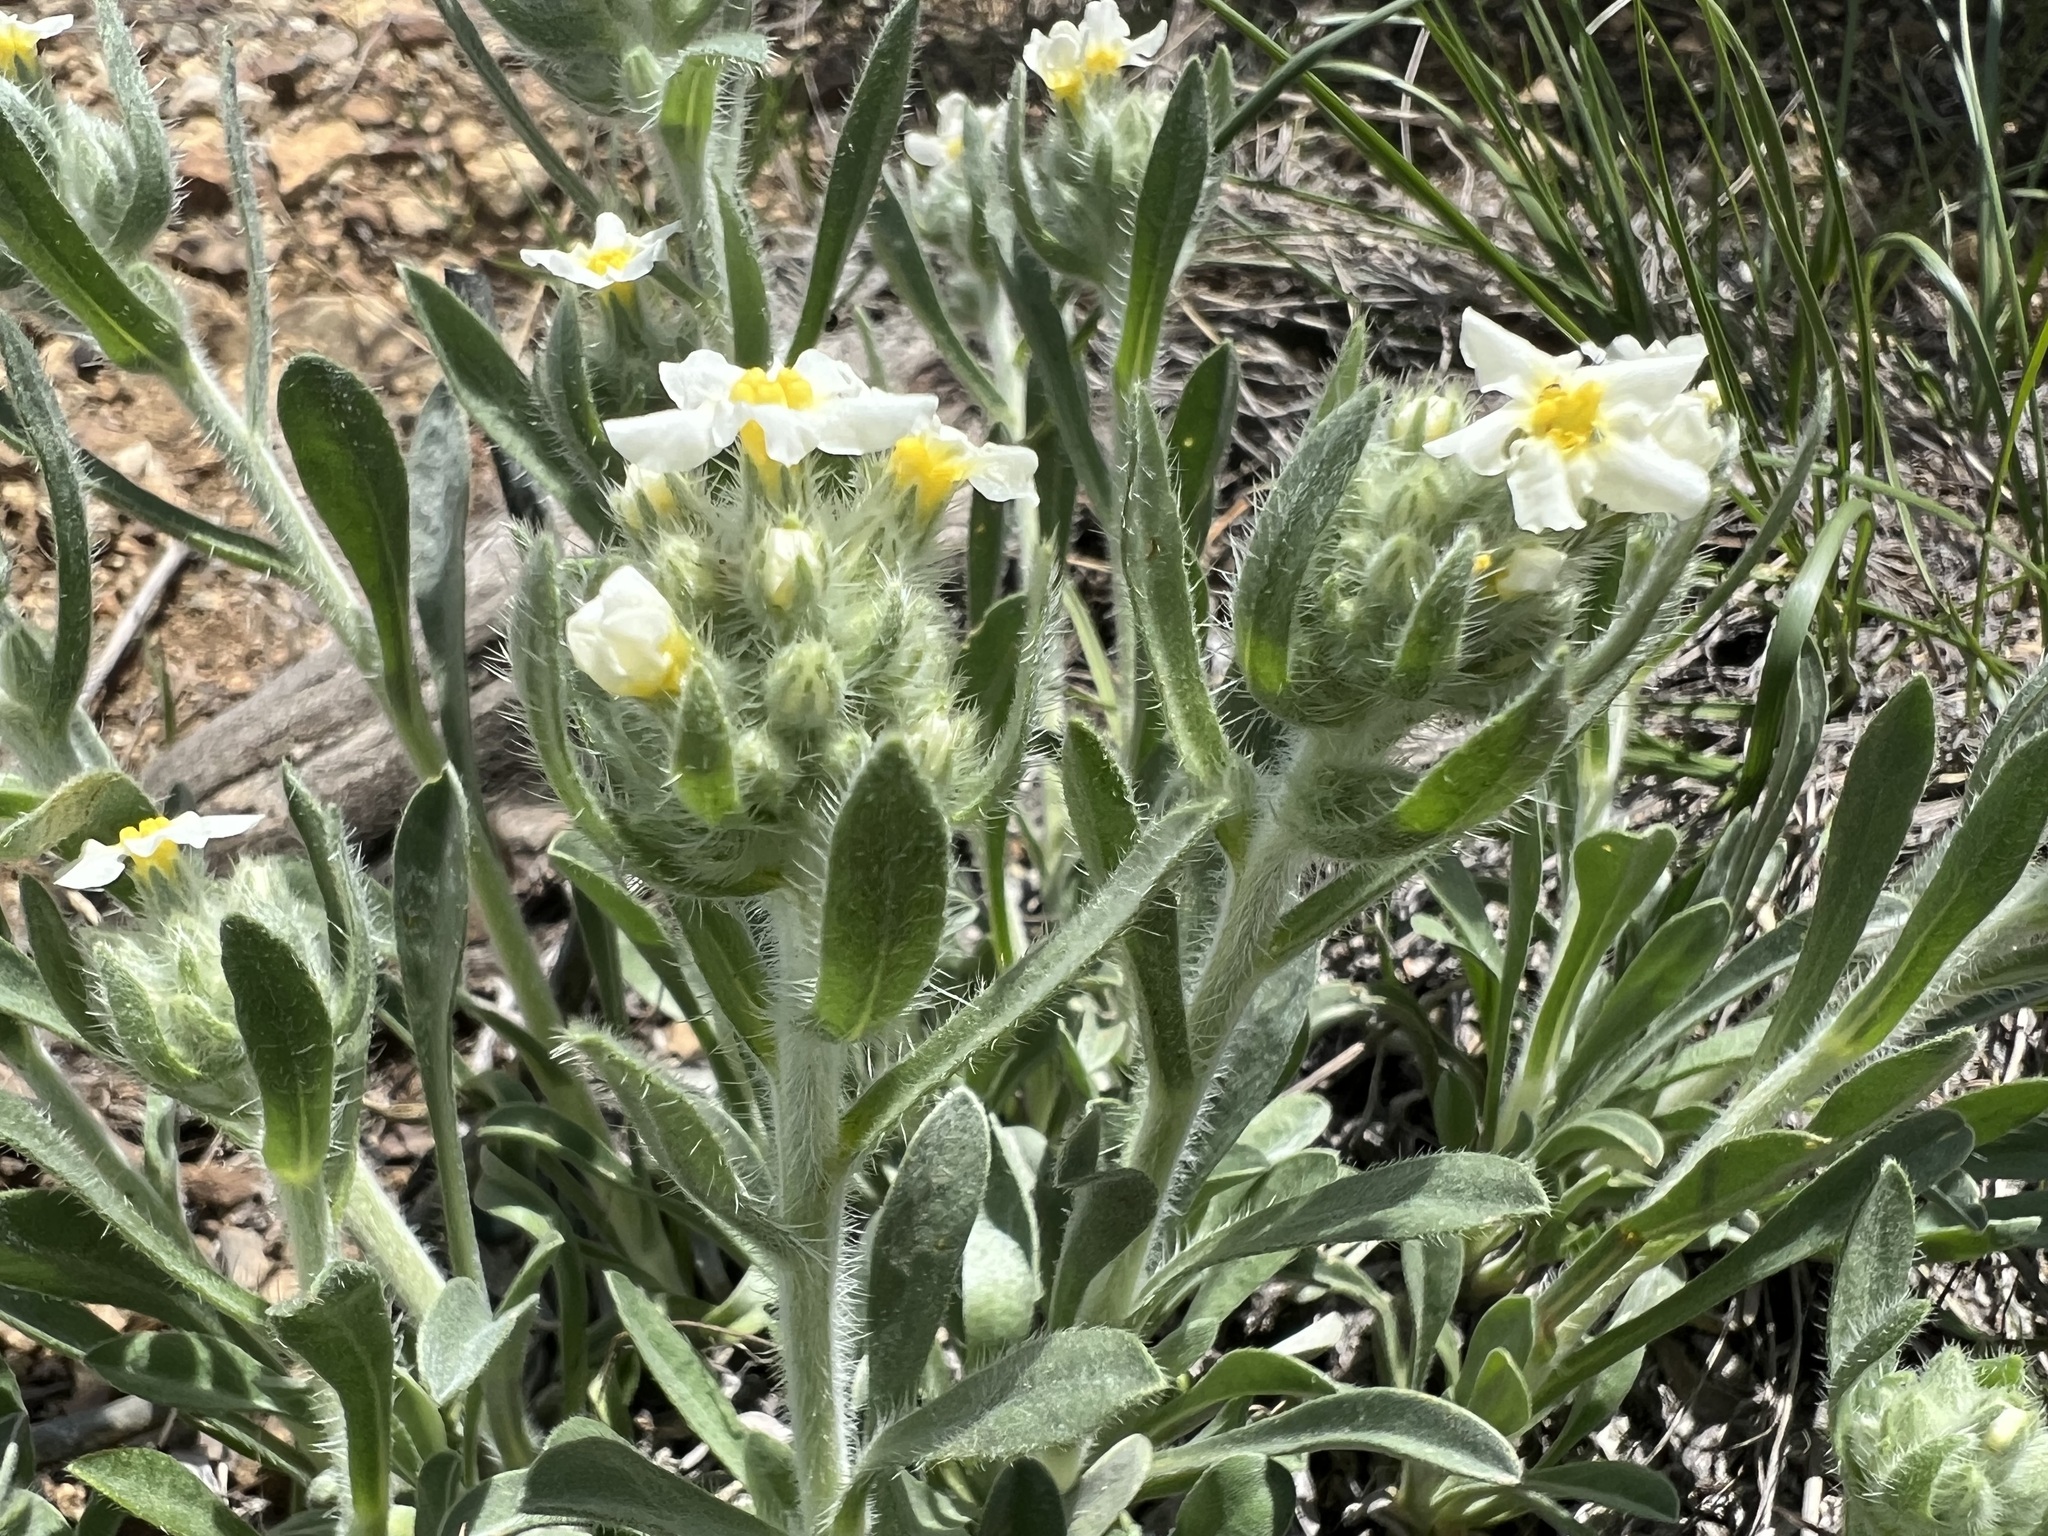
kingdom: Plantae
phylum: Tracheophyta
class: Magnoliopsida
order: Boraginales
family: Boraginaceae
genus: Oreocarya
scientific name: Oreocarya flavoculata
